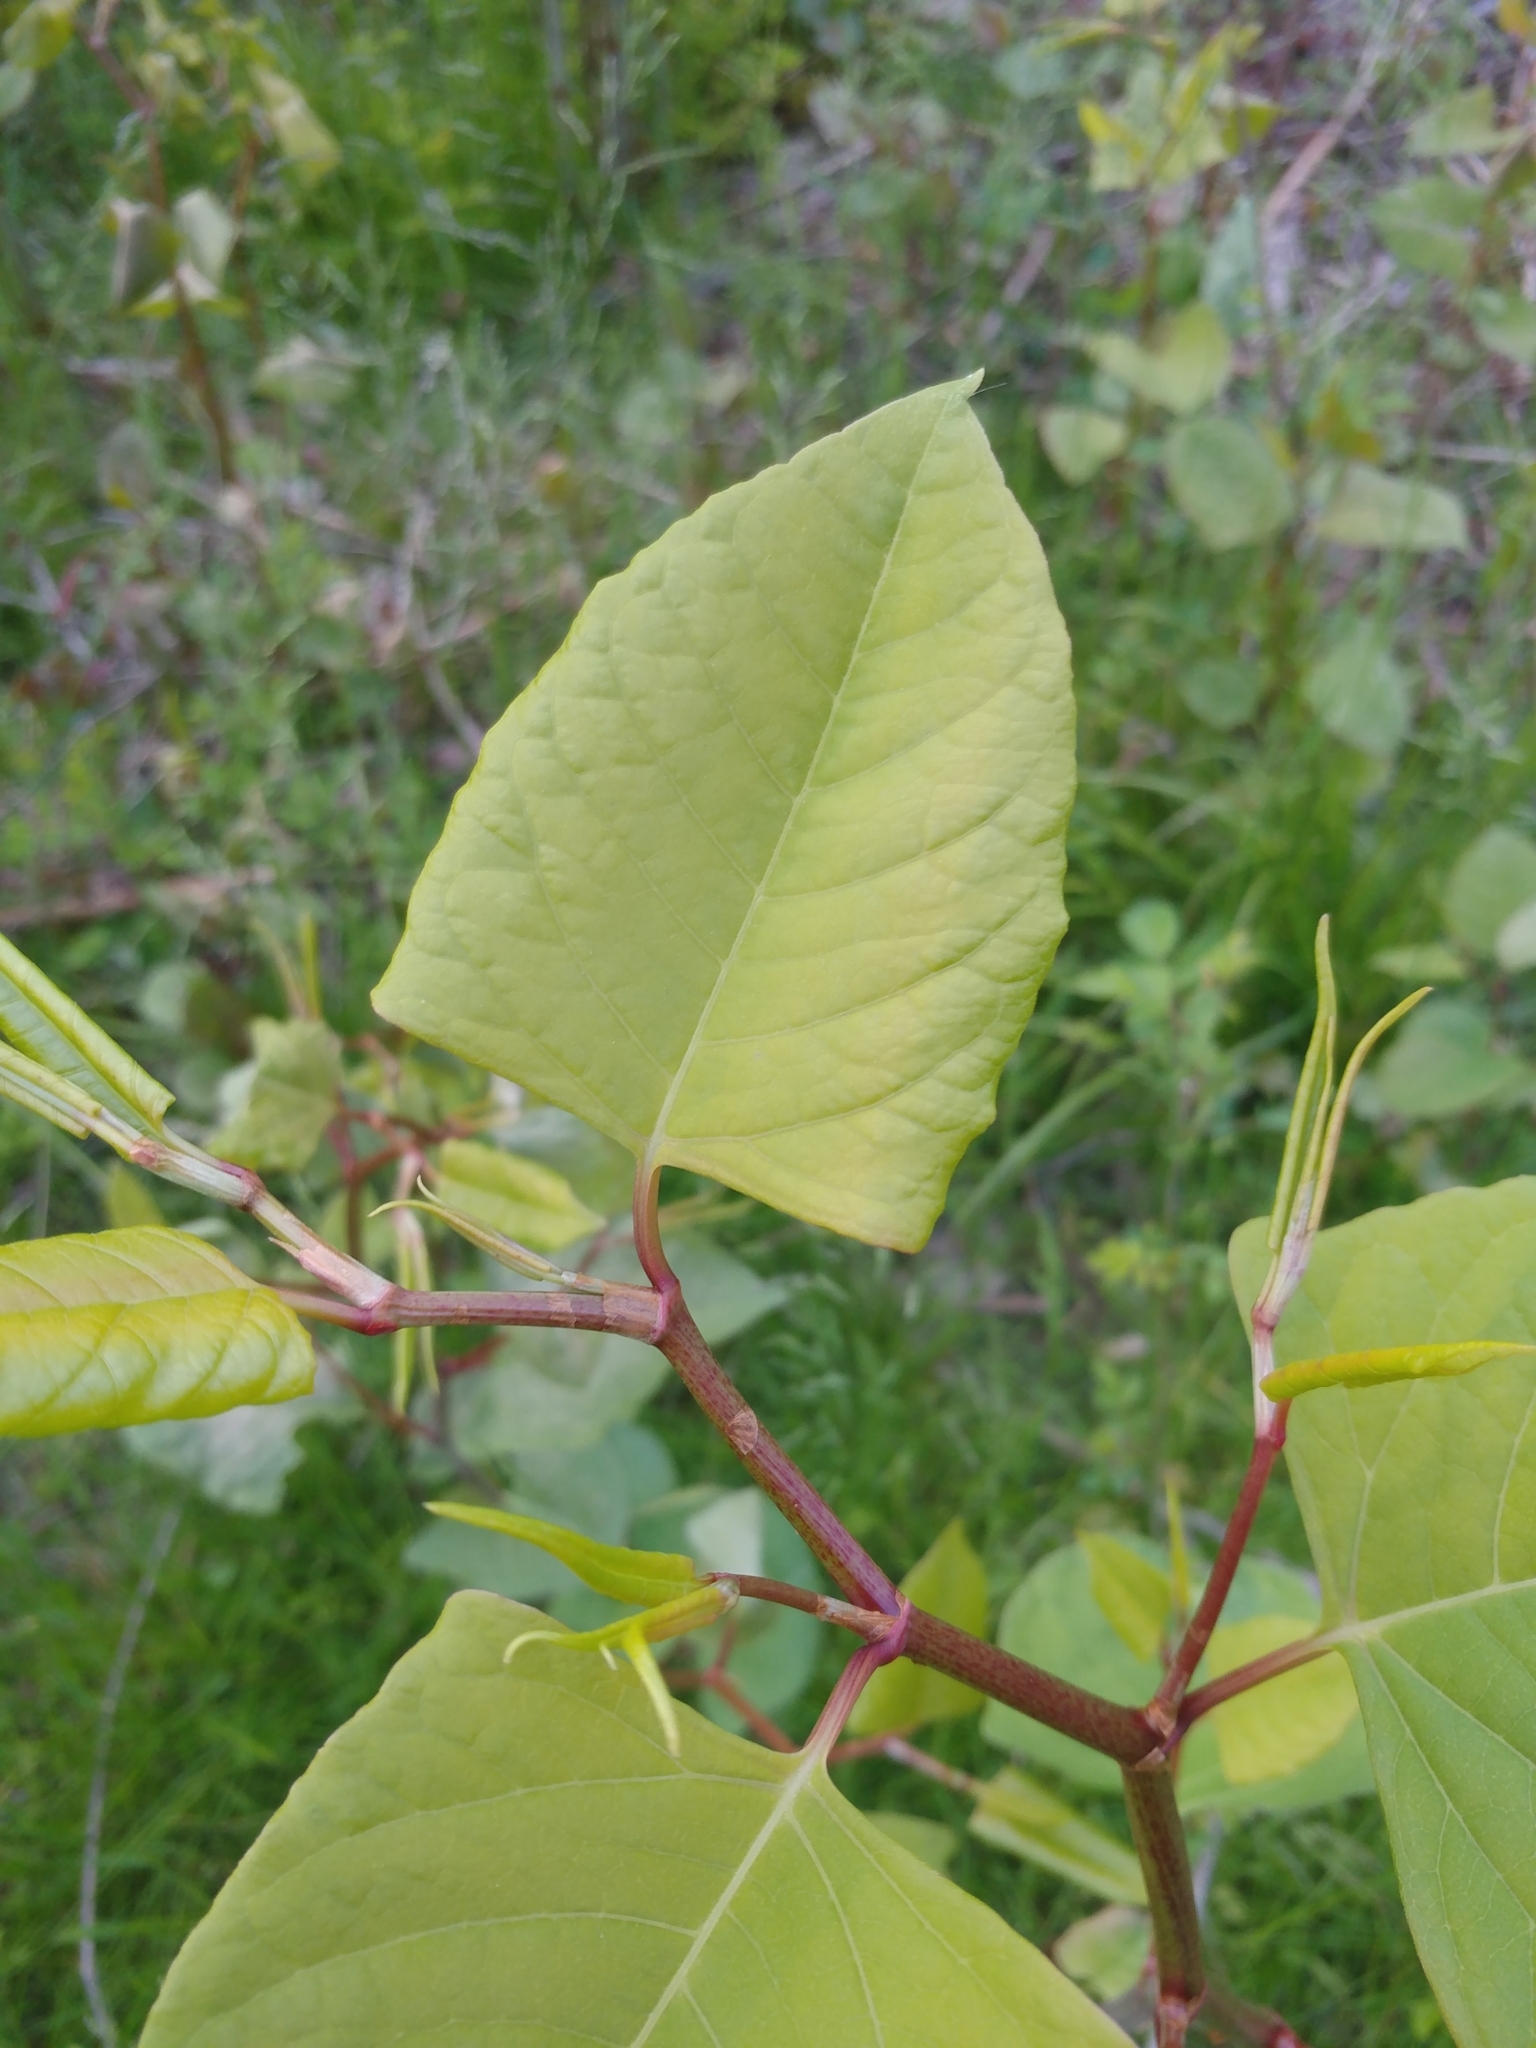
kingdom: Plantae
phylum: Tracheophyta
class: Magnoliopsida
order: Caryophyllales
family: Polygonaceae
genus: Reynoutria
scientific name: Reynoutria japonica
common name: Japanese knotweed
